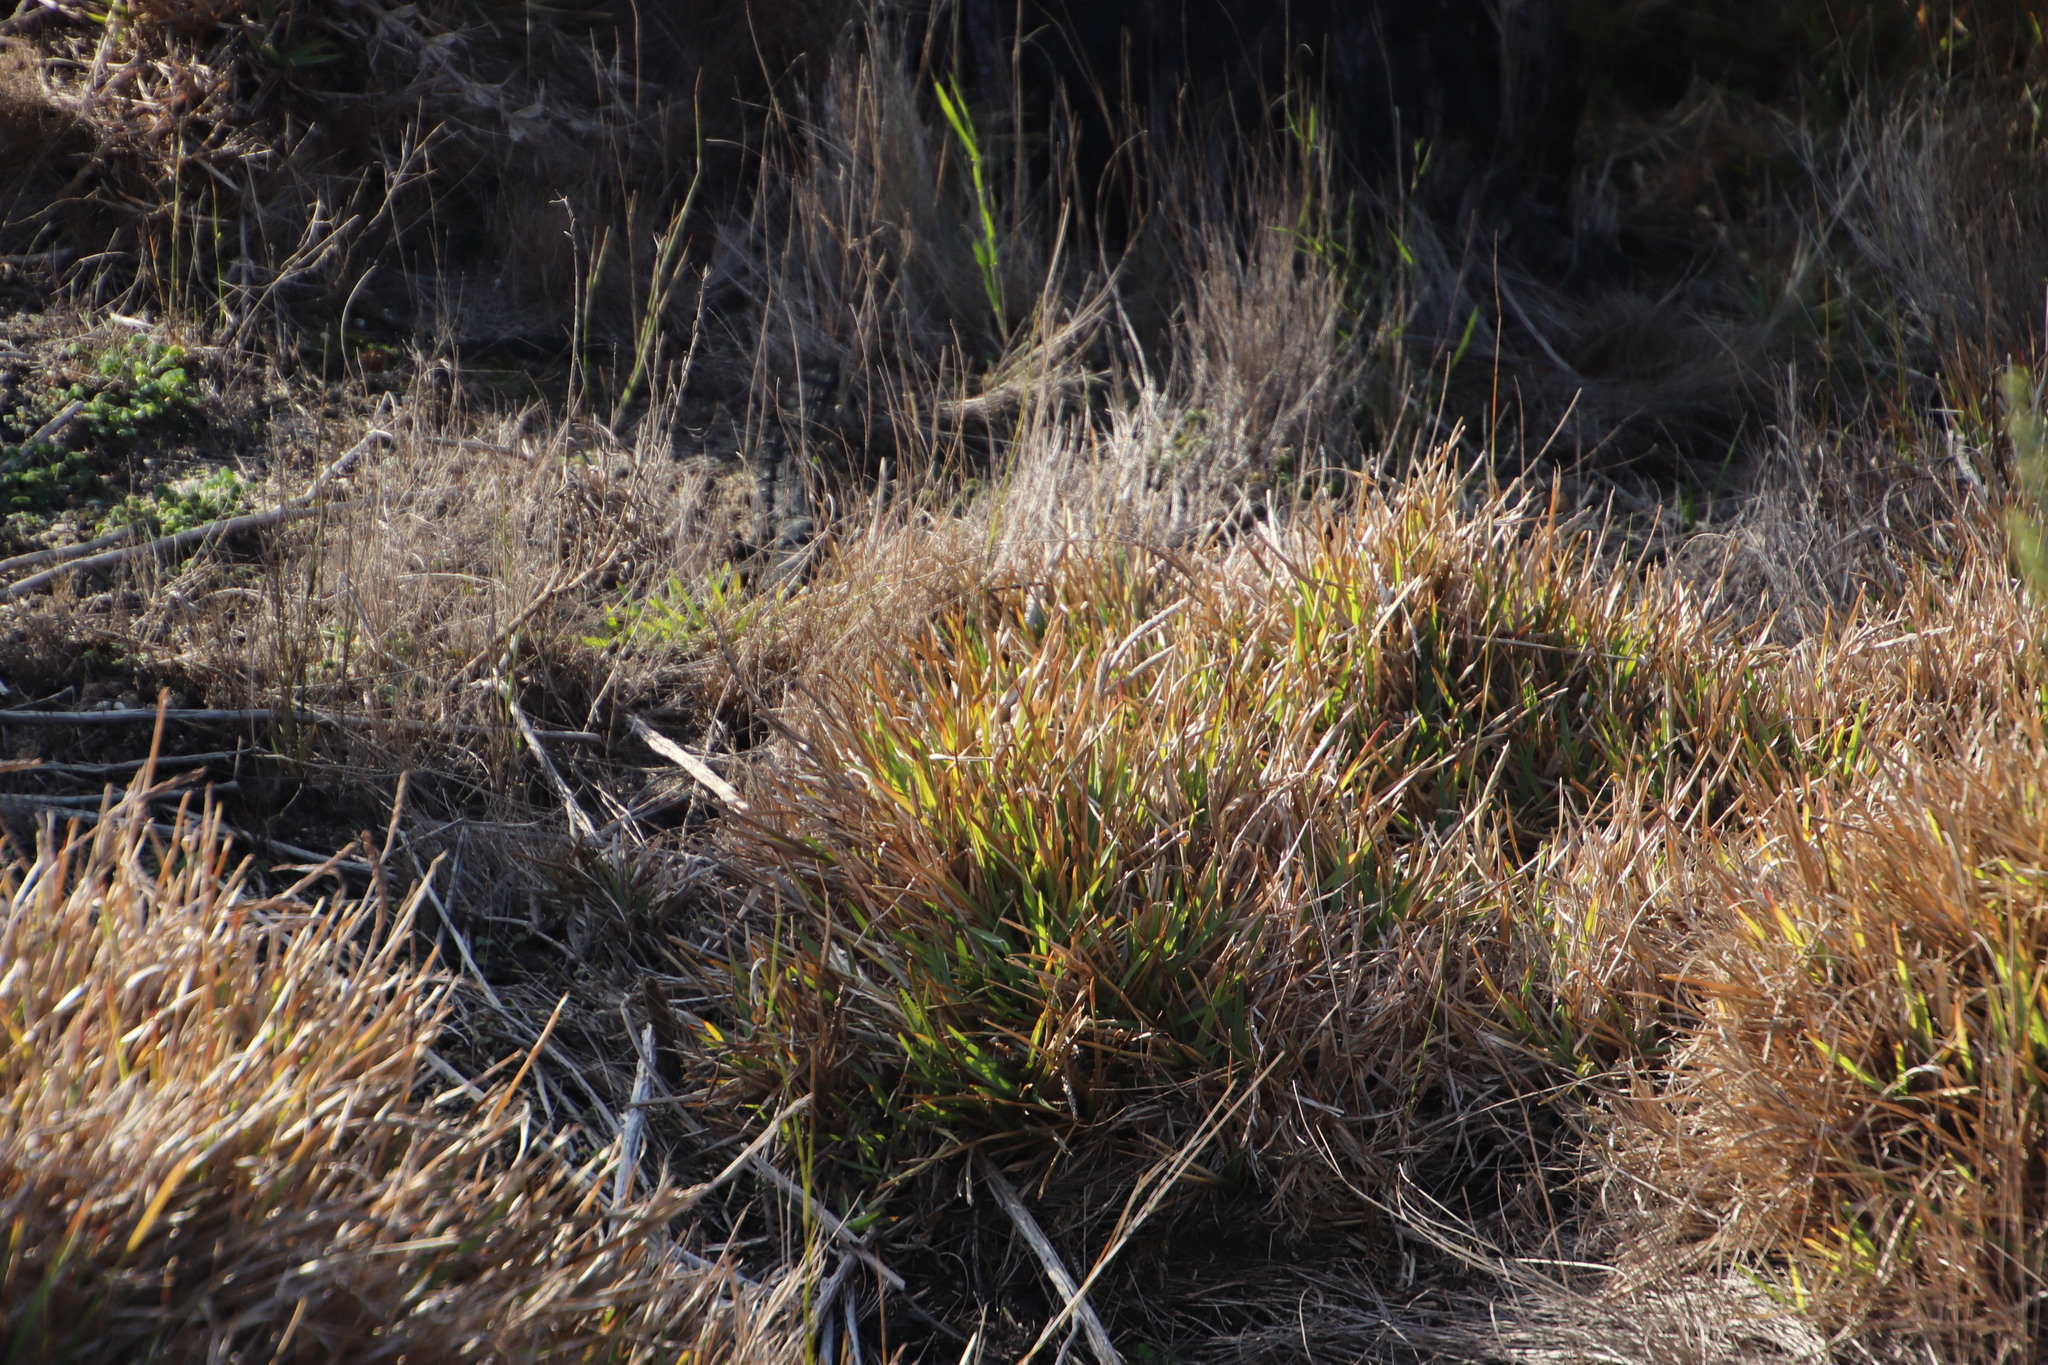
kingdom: Plantae
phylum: Tracheophyta
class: Liliopsida
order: Poales
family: Poaceae
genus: Stenotaphrum
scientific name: Stenotaphrum secundatum
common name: St. augustine grass
